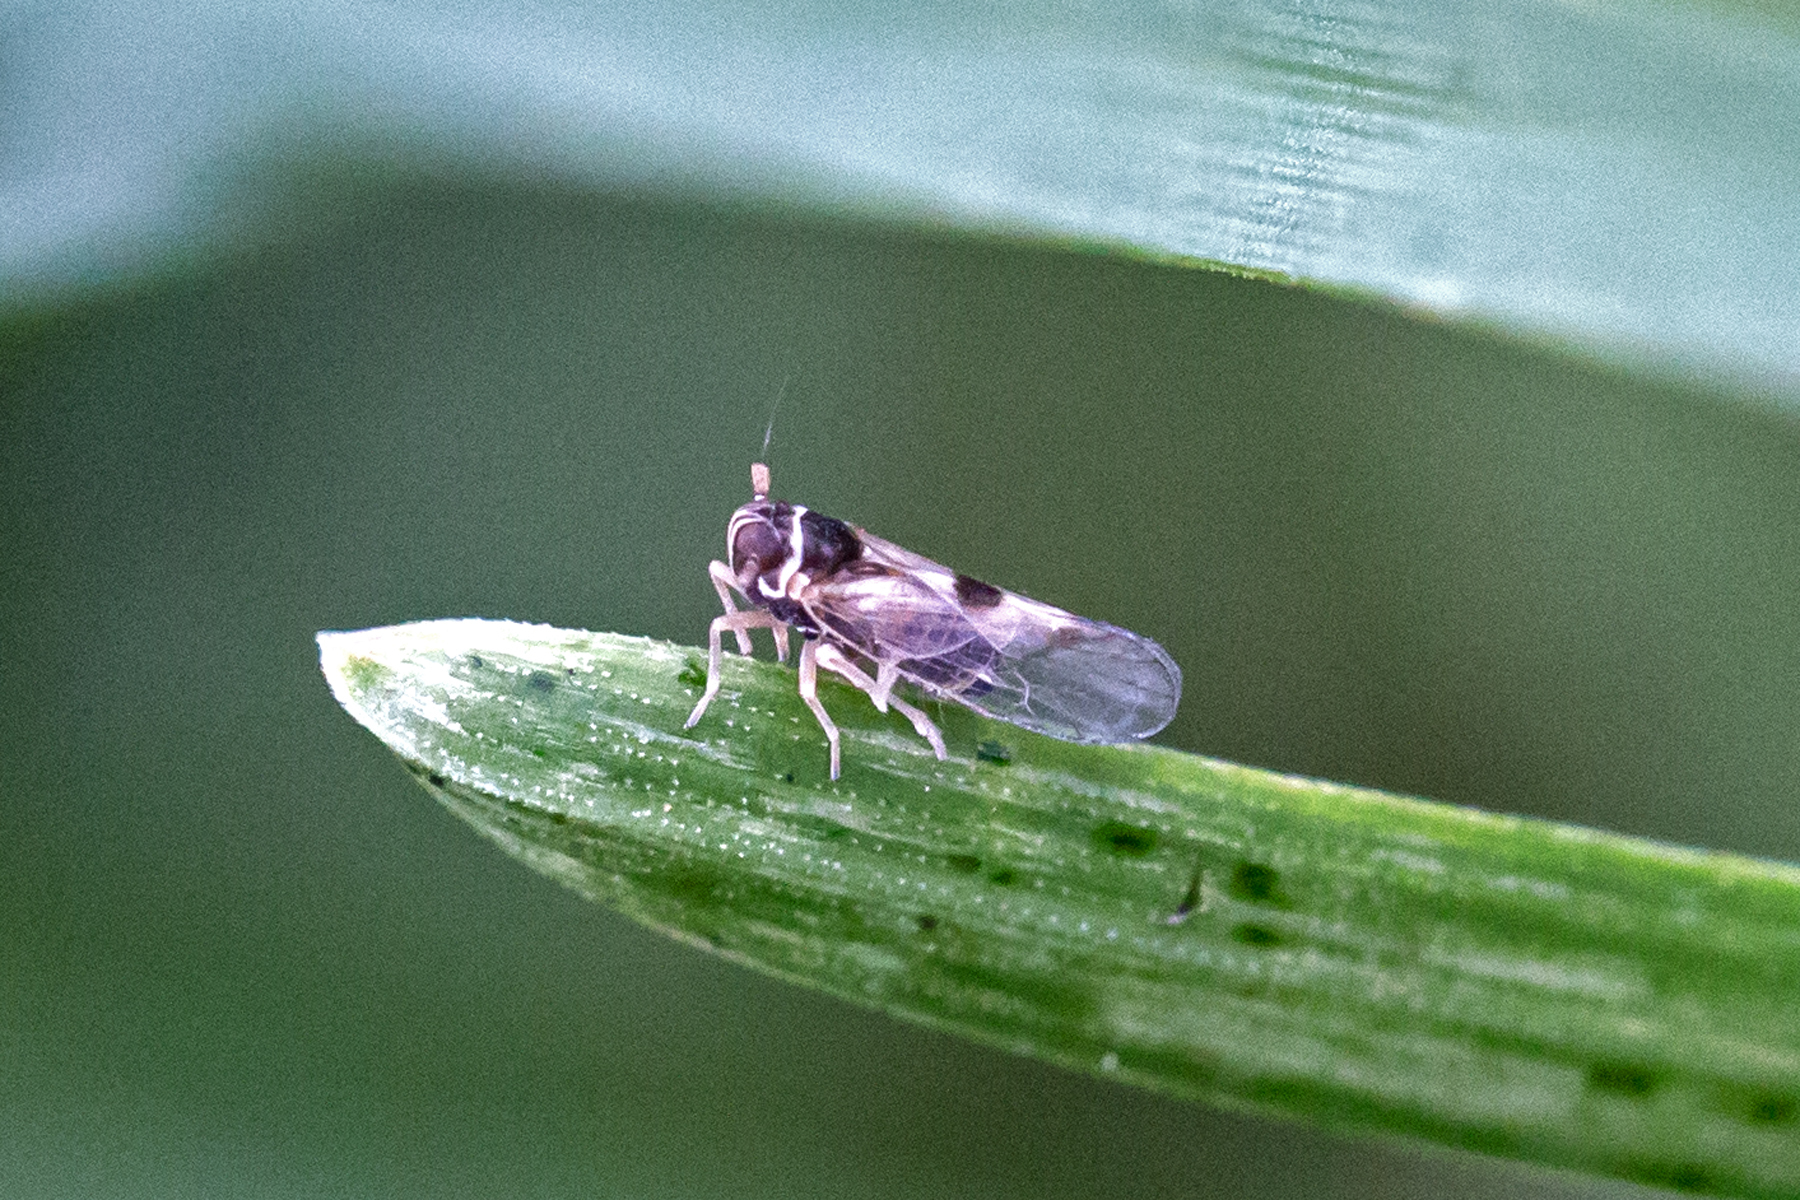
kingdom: Animalia
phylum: Arthropoda
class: Insecta
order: Hemiptera
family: Delphacidae
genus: Chionomus
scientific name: Chionomus
